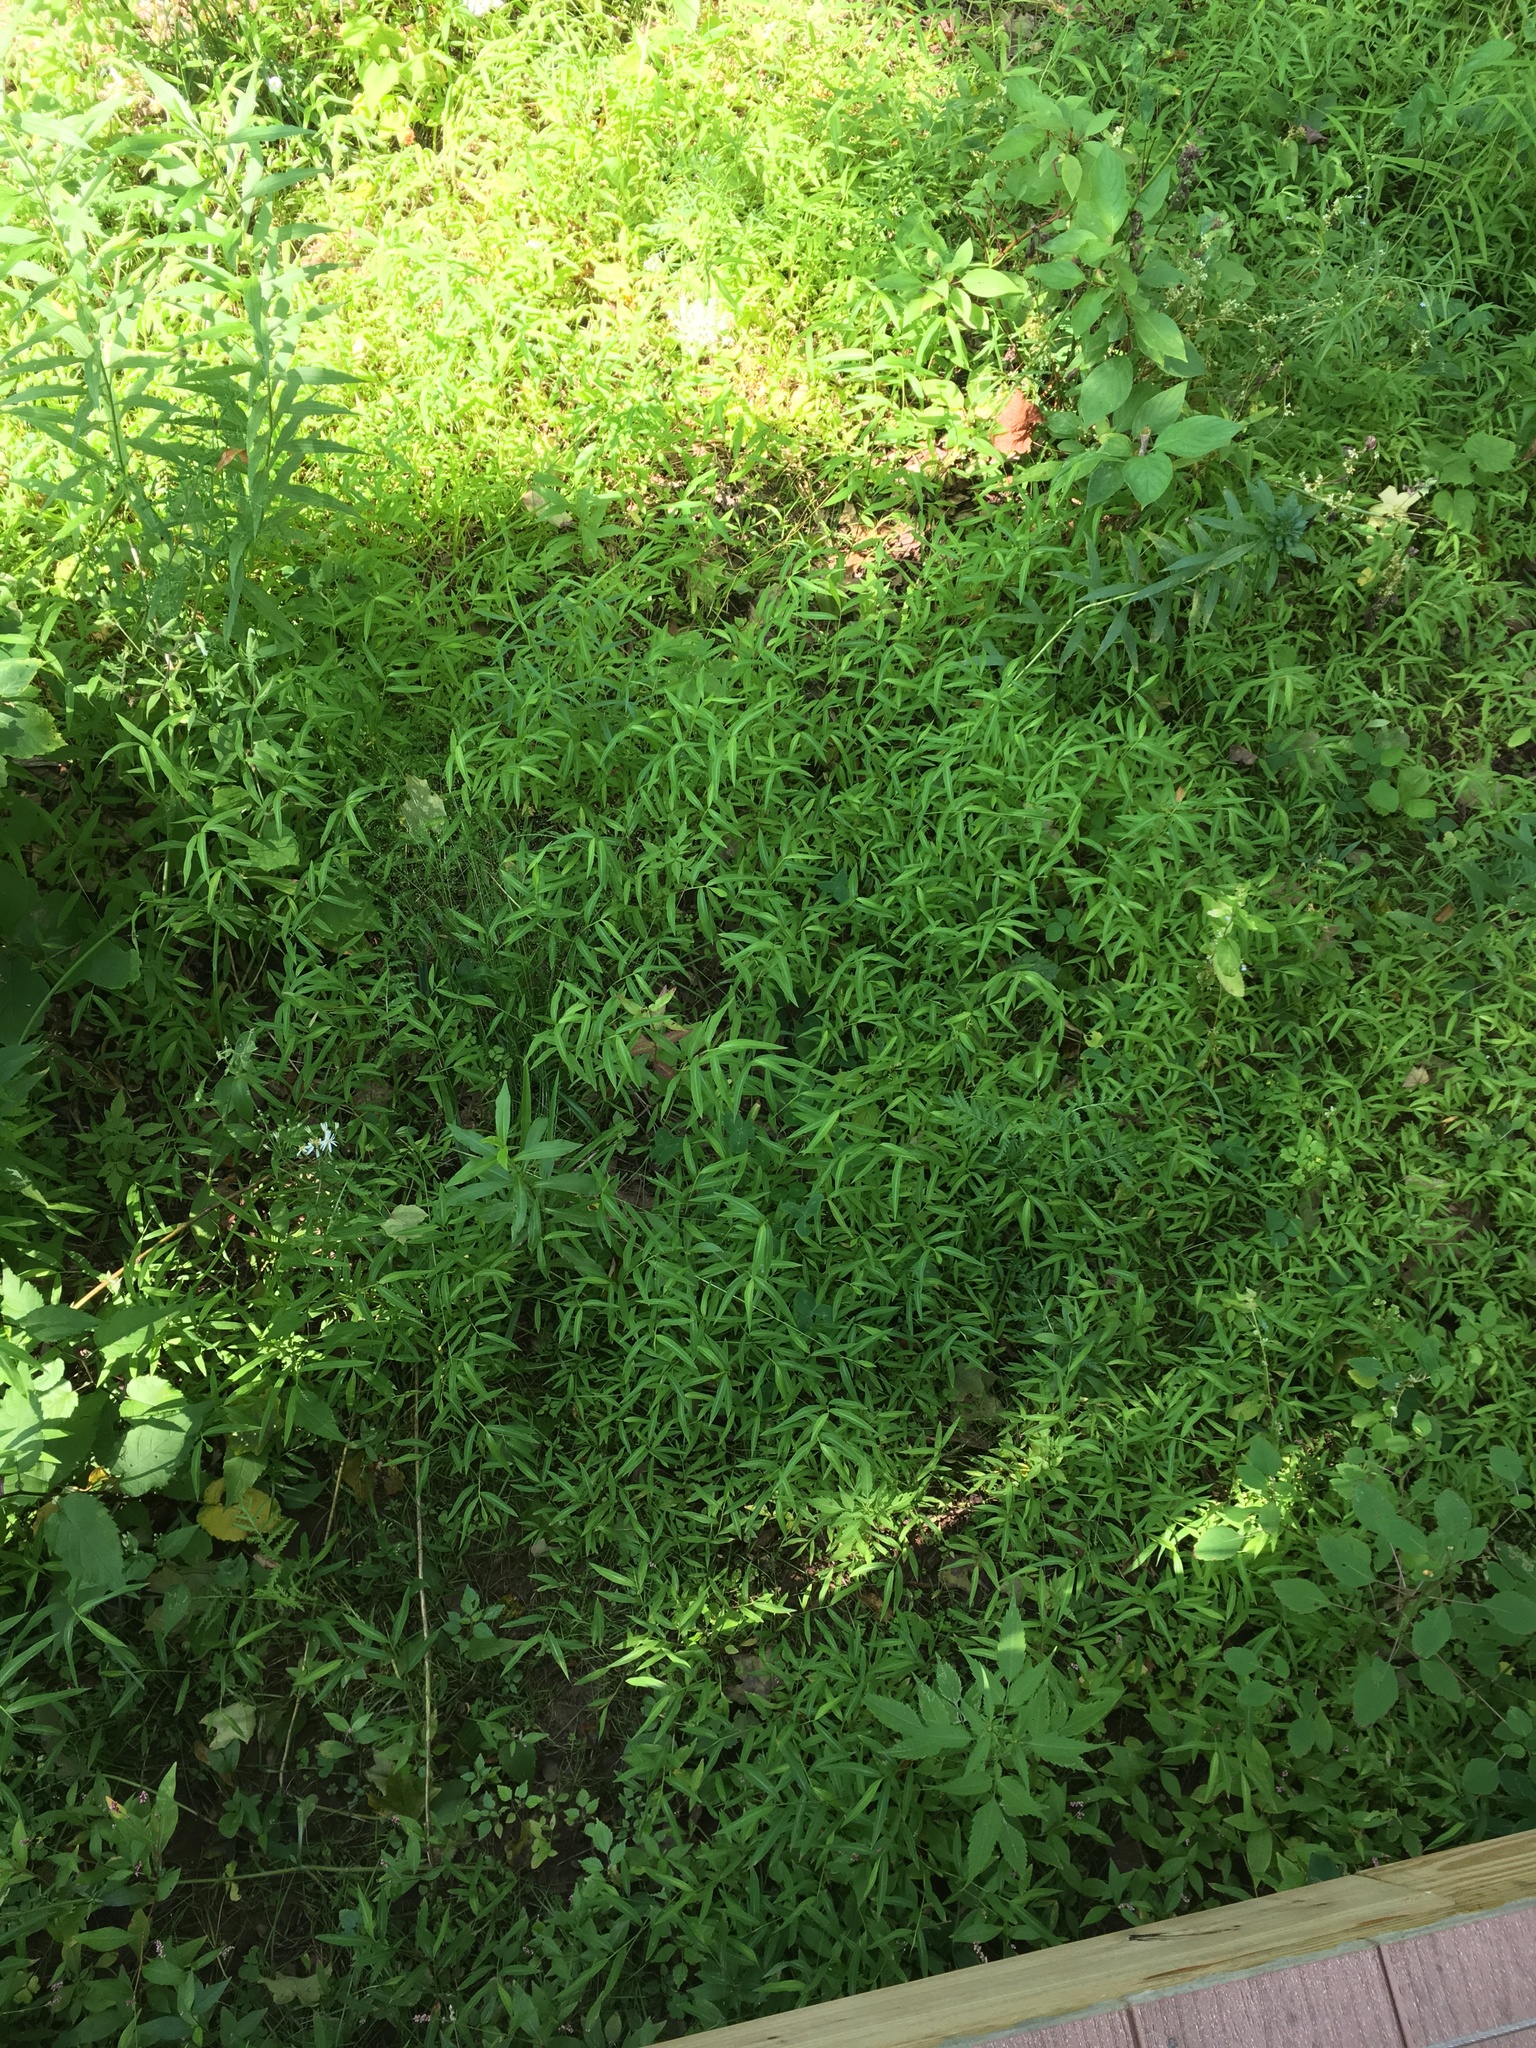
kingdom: Plantae
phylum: Tracheophyta
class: Liliopsida
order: Poales
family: Poaceae
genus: Microstegium
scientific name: Microstegium vimineum
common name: Japanese stiltgrass
